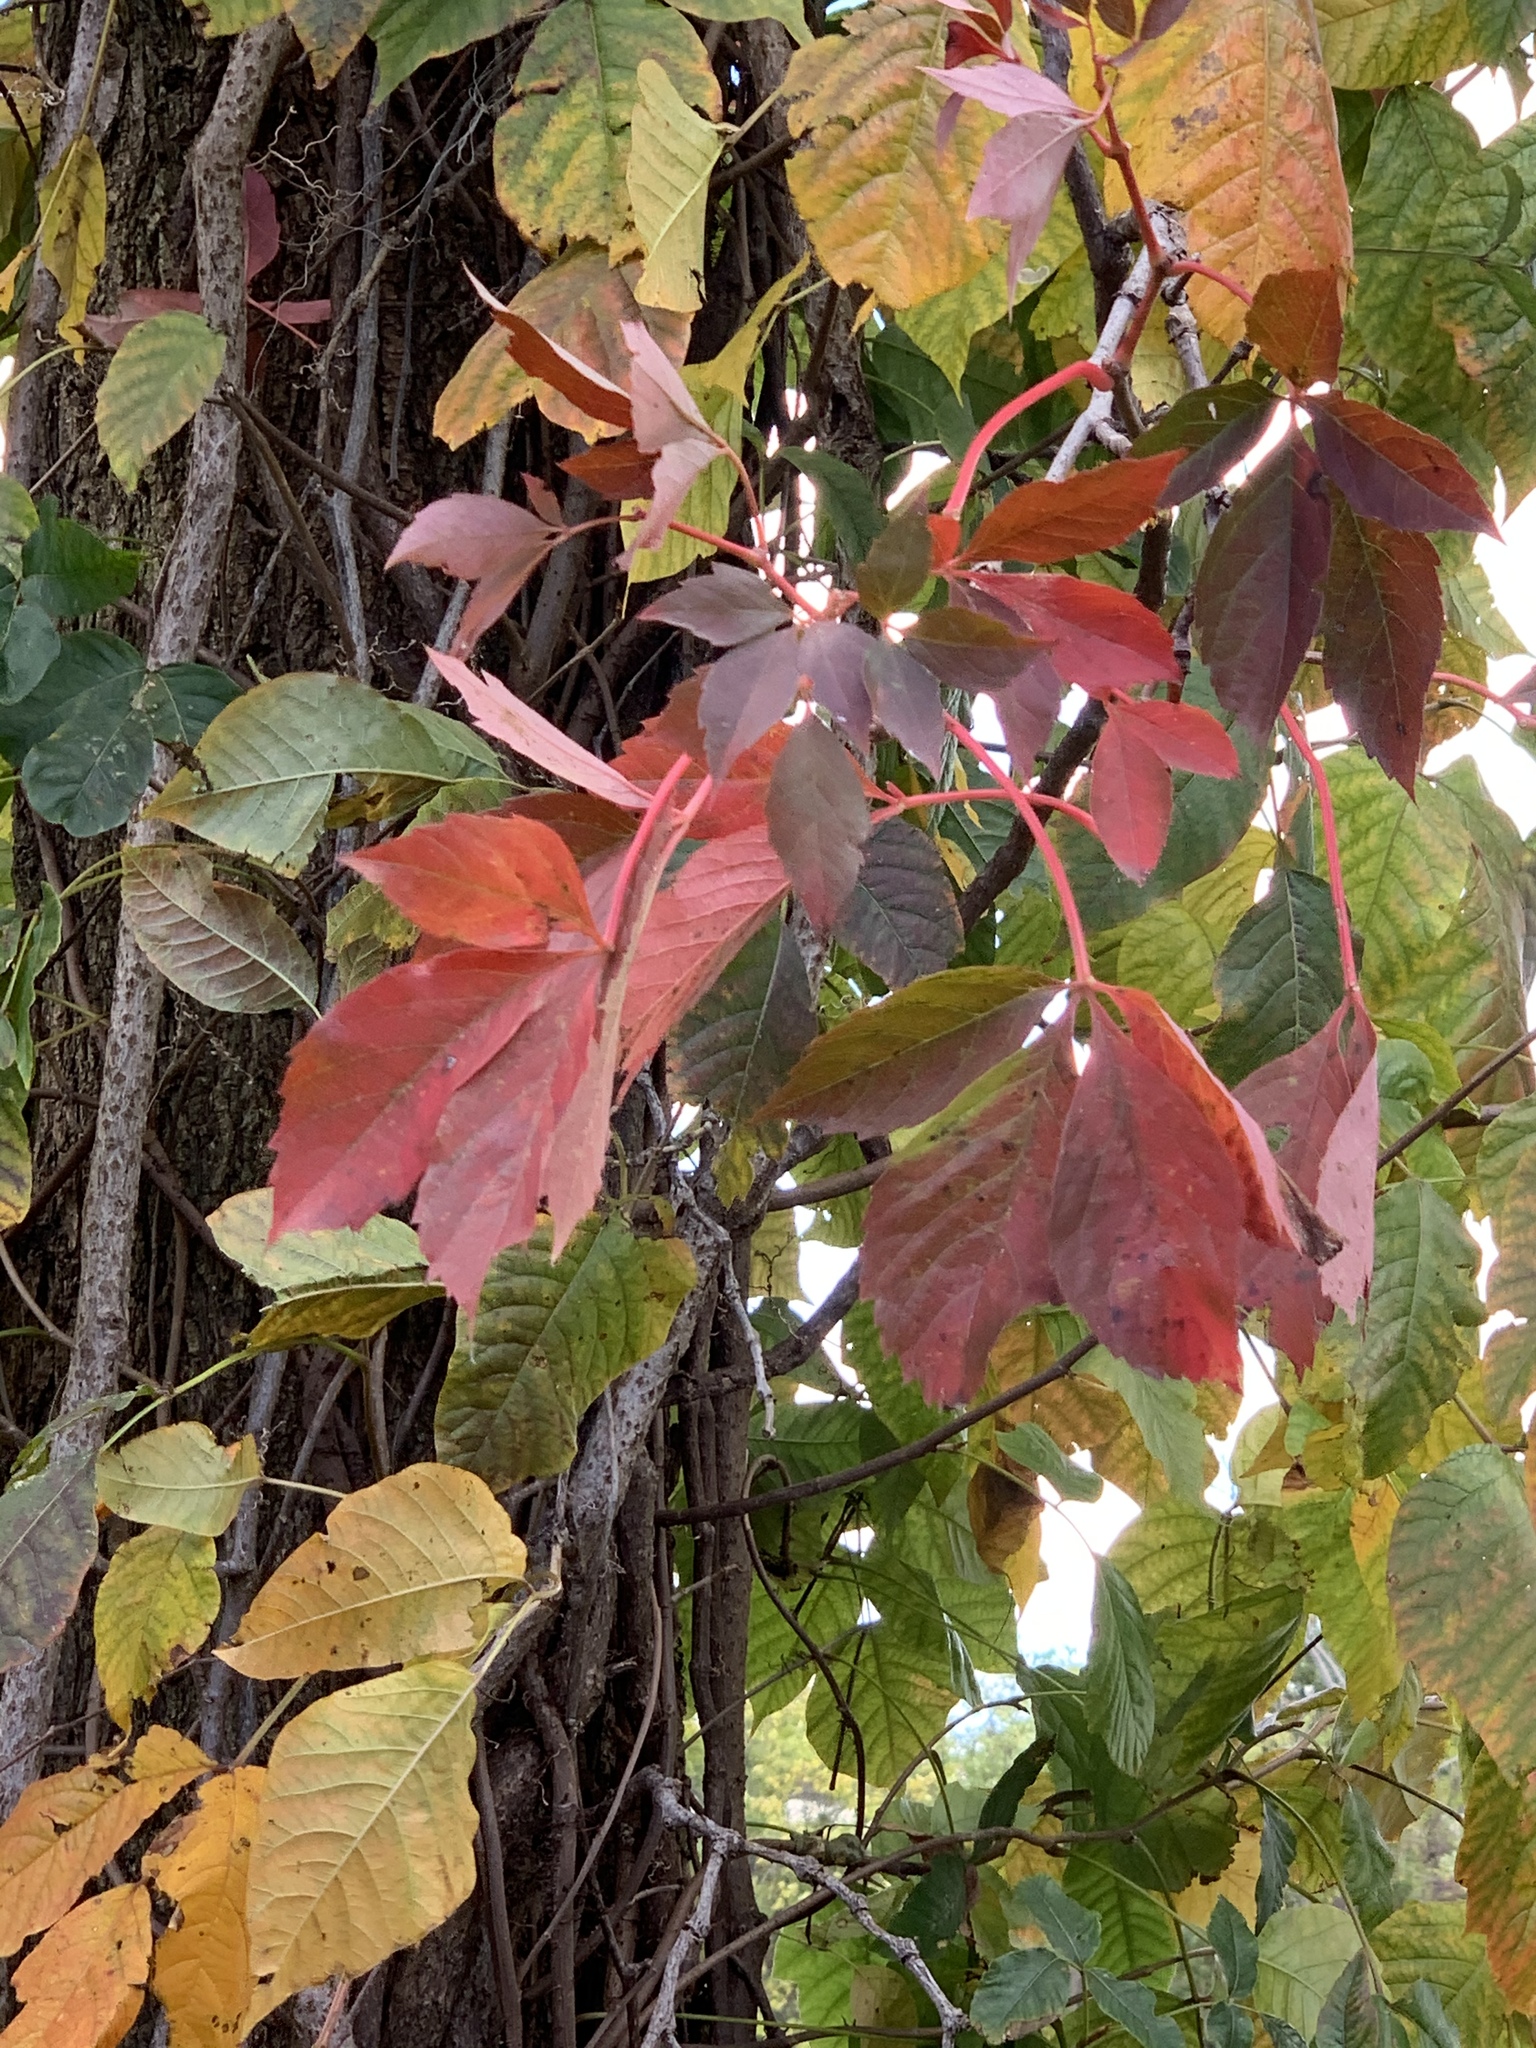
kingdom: Plantae
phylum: Tracheophyta
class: Magnoliopsida
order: Sapindales
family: Anacardiaceae
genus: Toxicodendron
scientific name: Toxicodendron radicans
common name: Poison ivy
